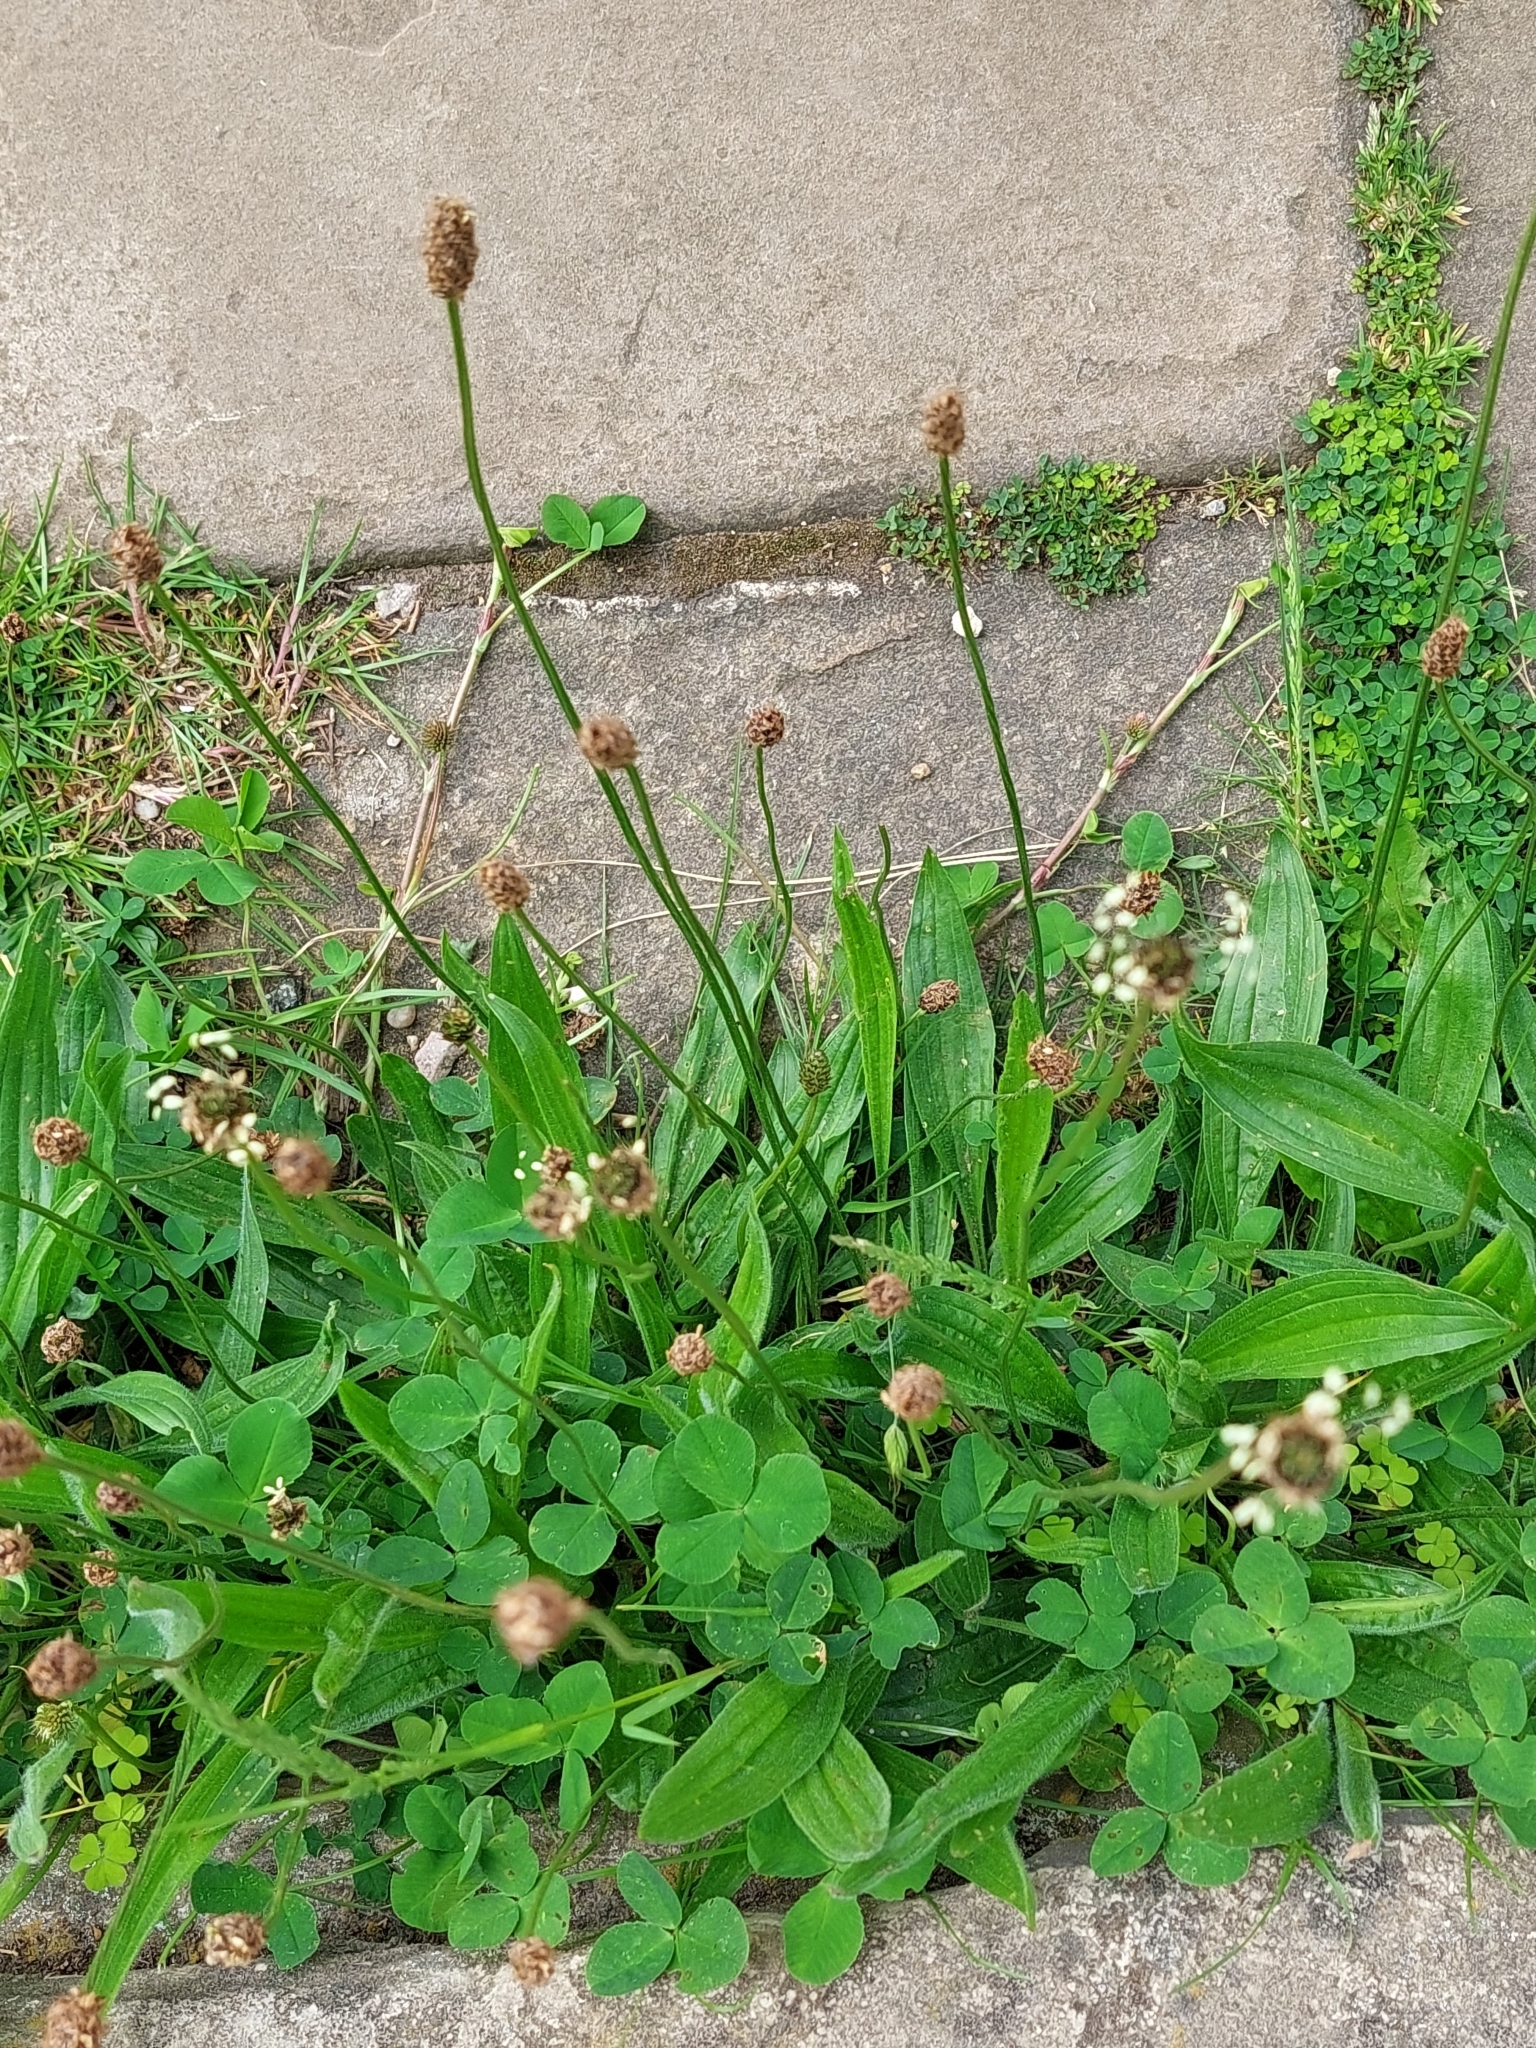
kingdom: Plantae
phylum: Tracheophyta
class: Magnoliopsida
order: Lamiales
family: Plantaginaceae
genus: Plantago
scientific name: Plantago lanceolata
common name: Ribwort plantain
